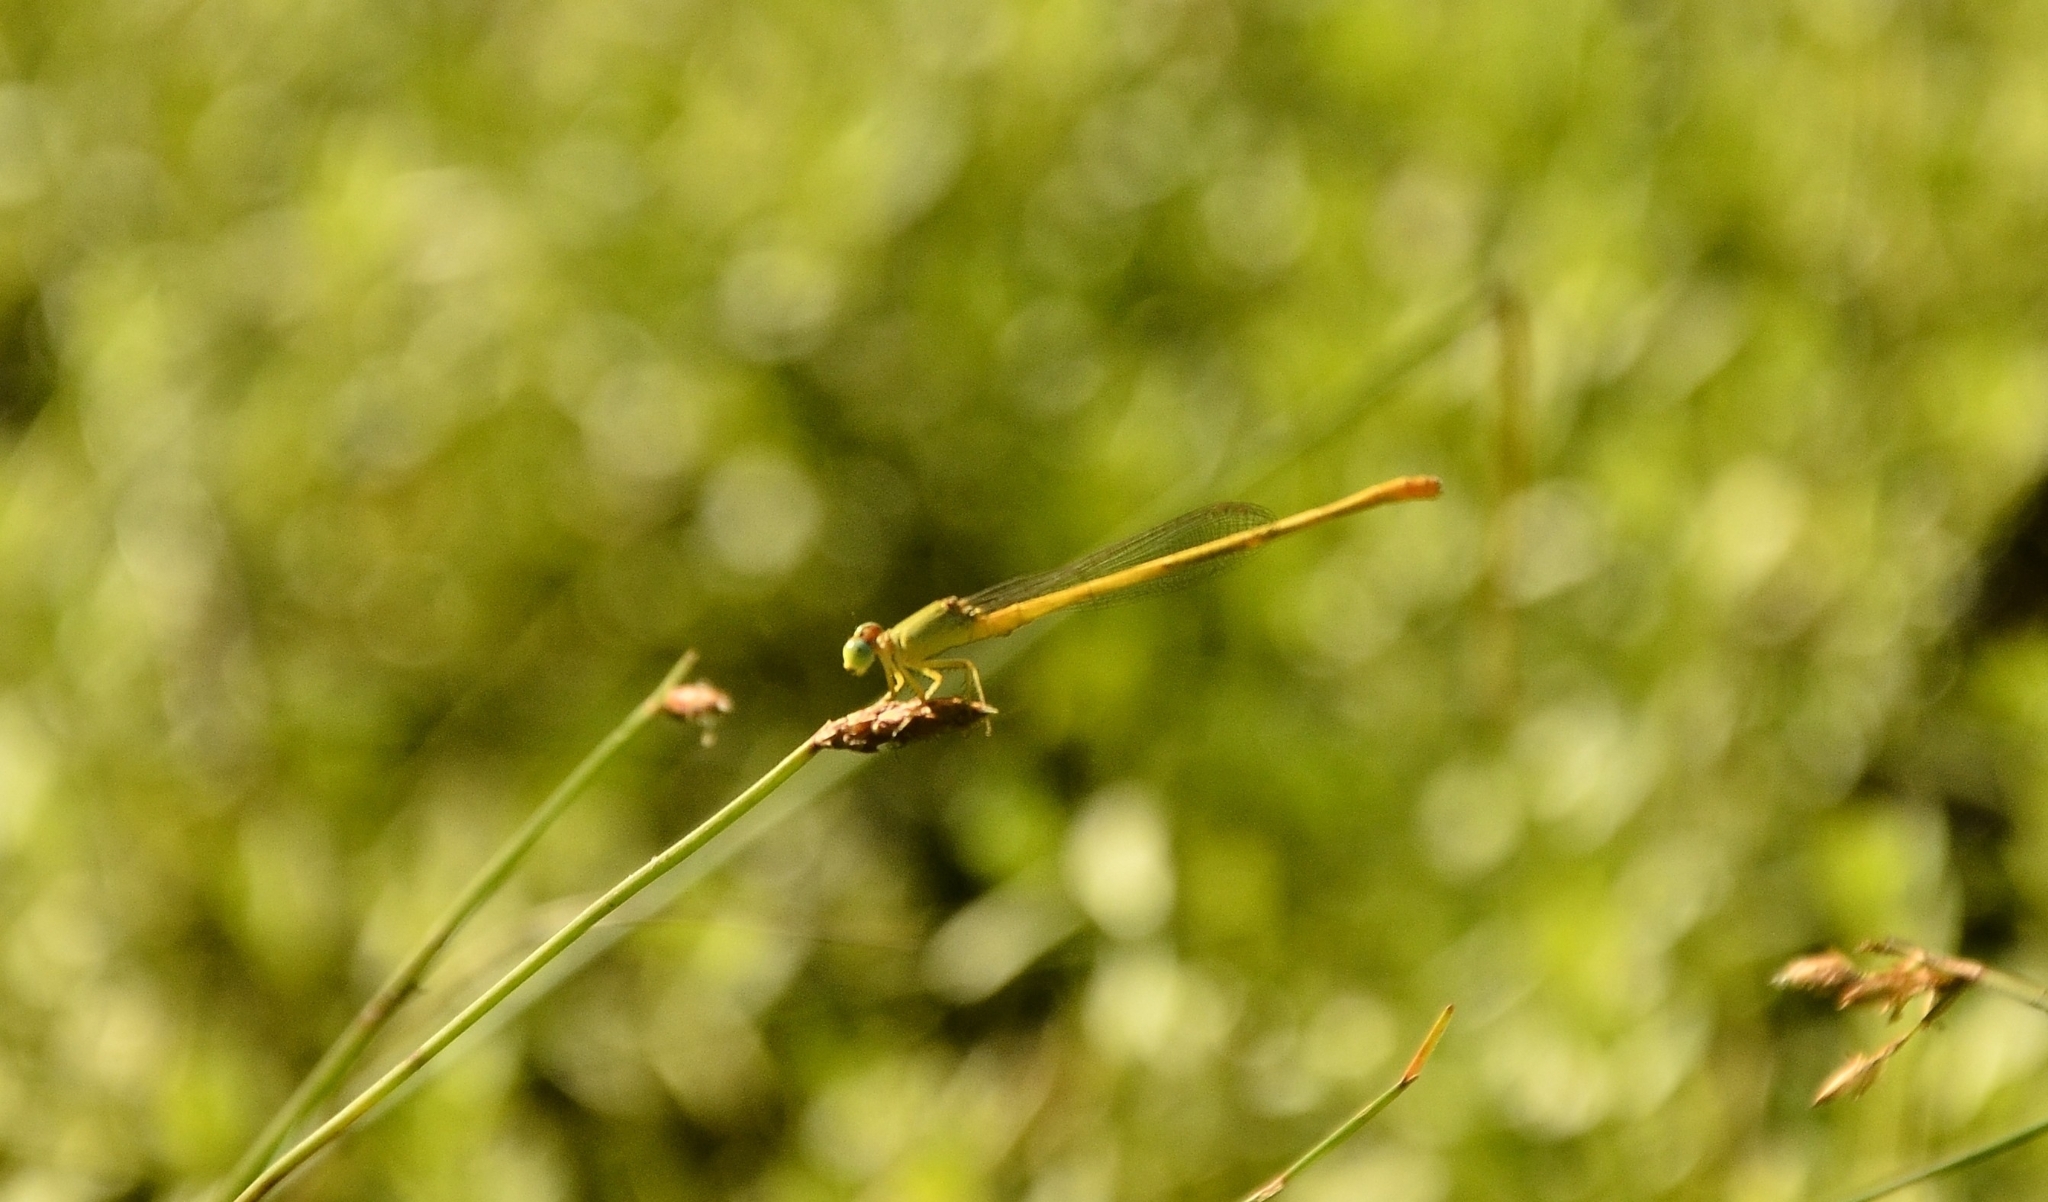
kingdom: Animalia
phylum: Arthropoda
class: Insecta
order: Odonata
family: Coenagrionidae
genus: Ceriagrion
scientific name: Ceriagrion coromandelianum
